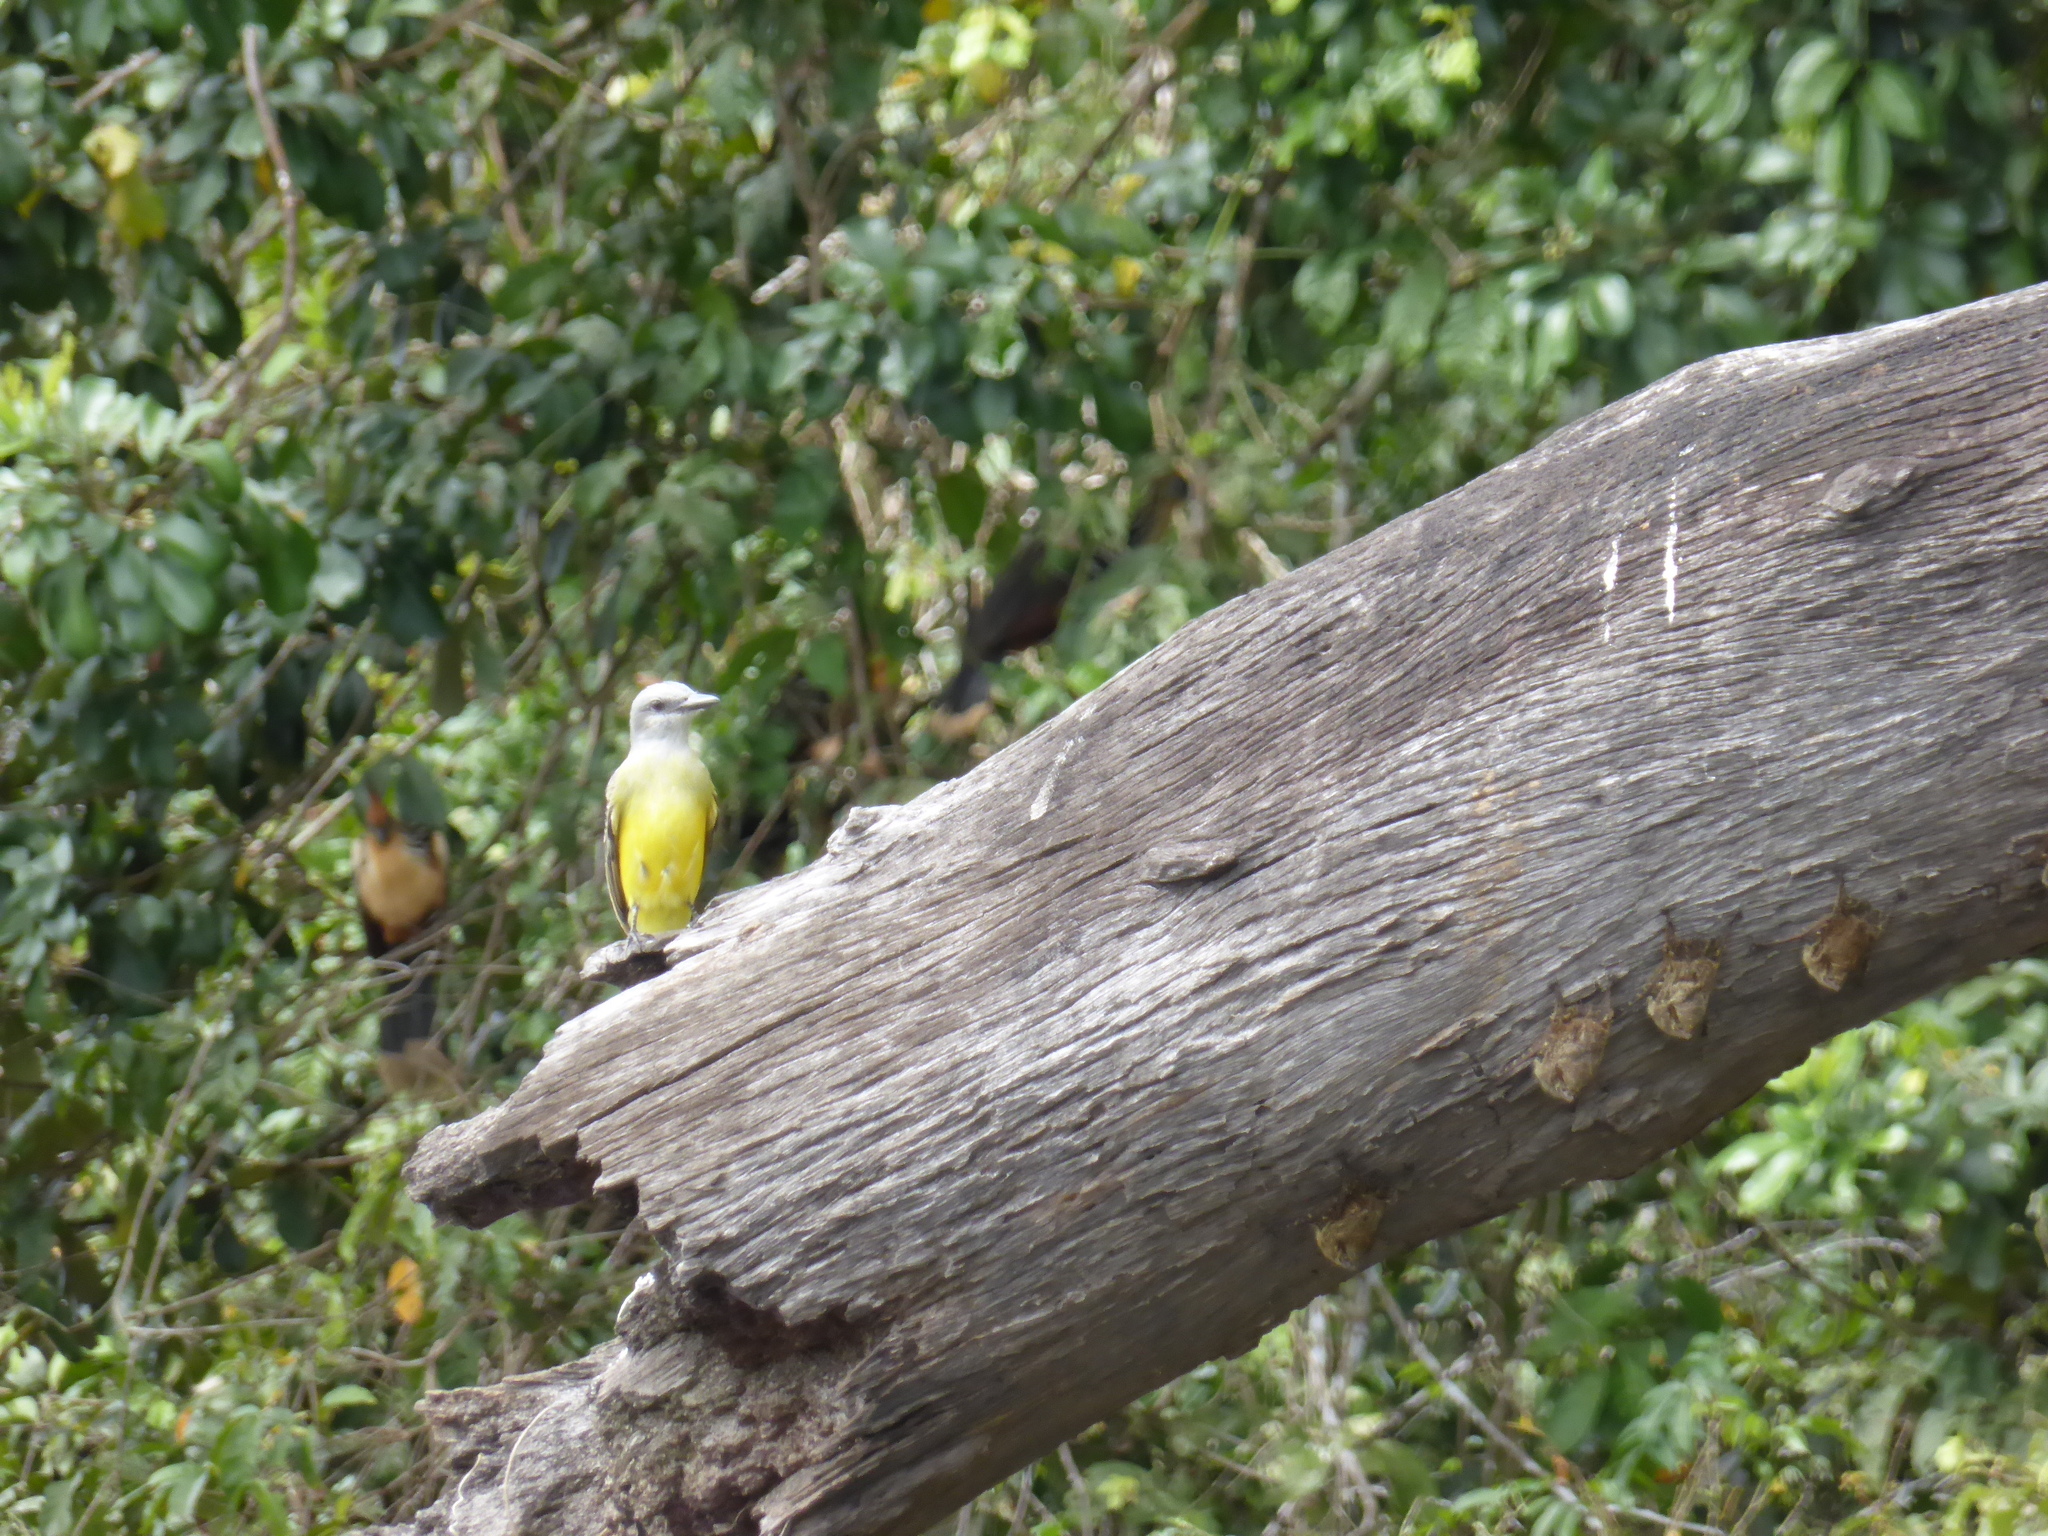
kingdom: Animalia
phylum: Chordata
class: Aves
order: Passeriformes
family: Tyrannidae
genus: Tyrannus
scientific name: Tyrannus melancholicus
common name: Tropical kingbird
